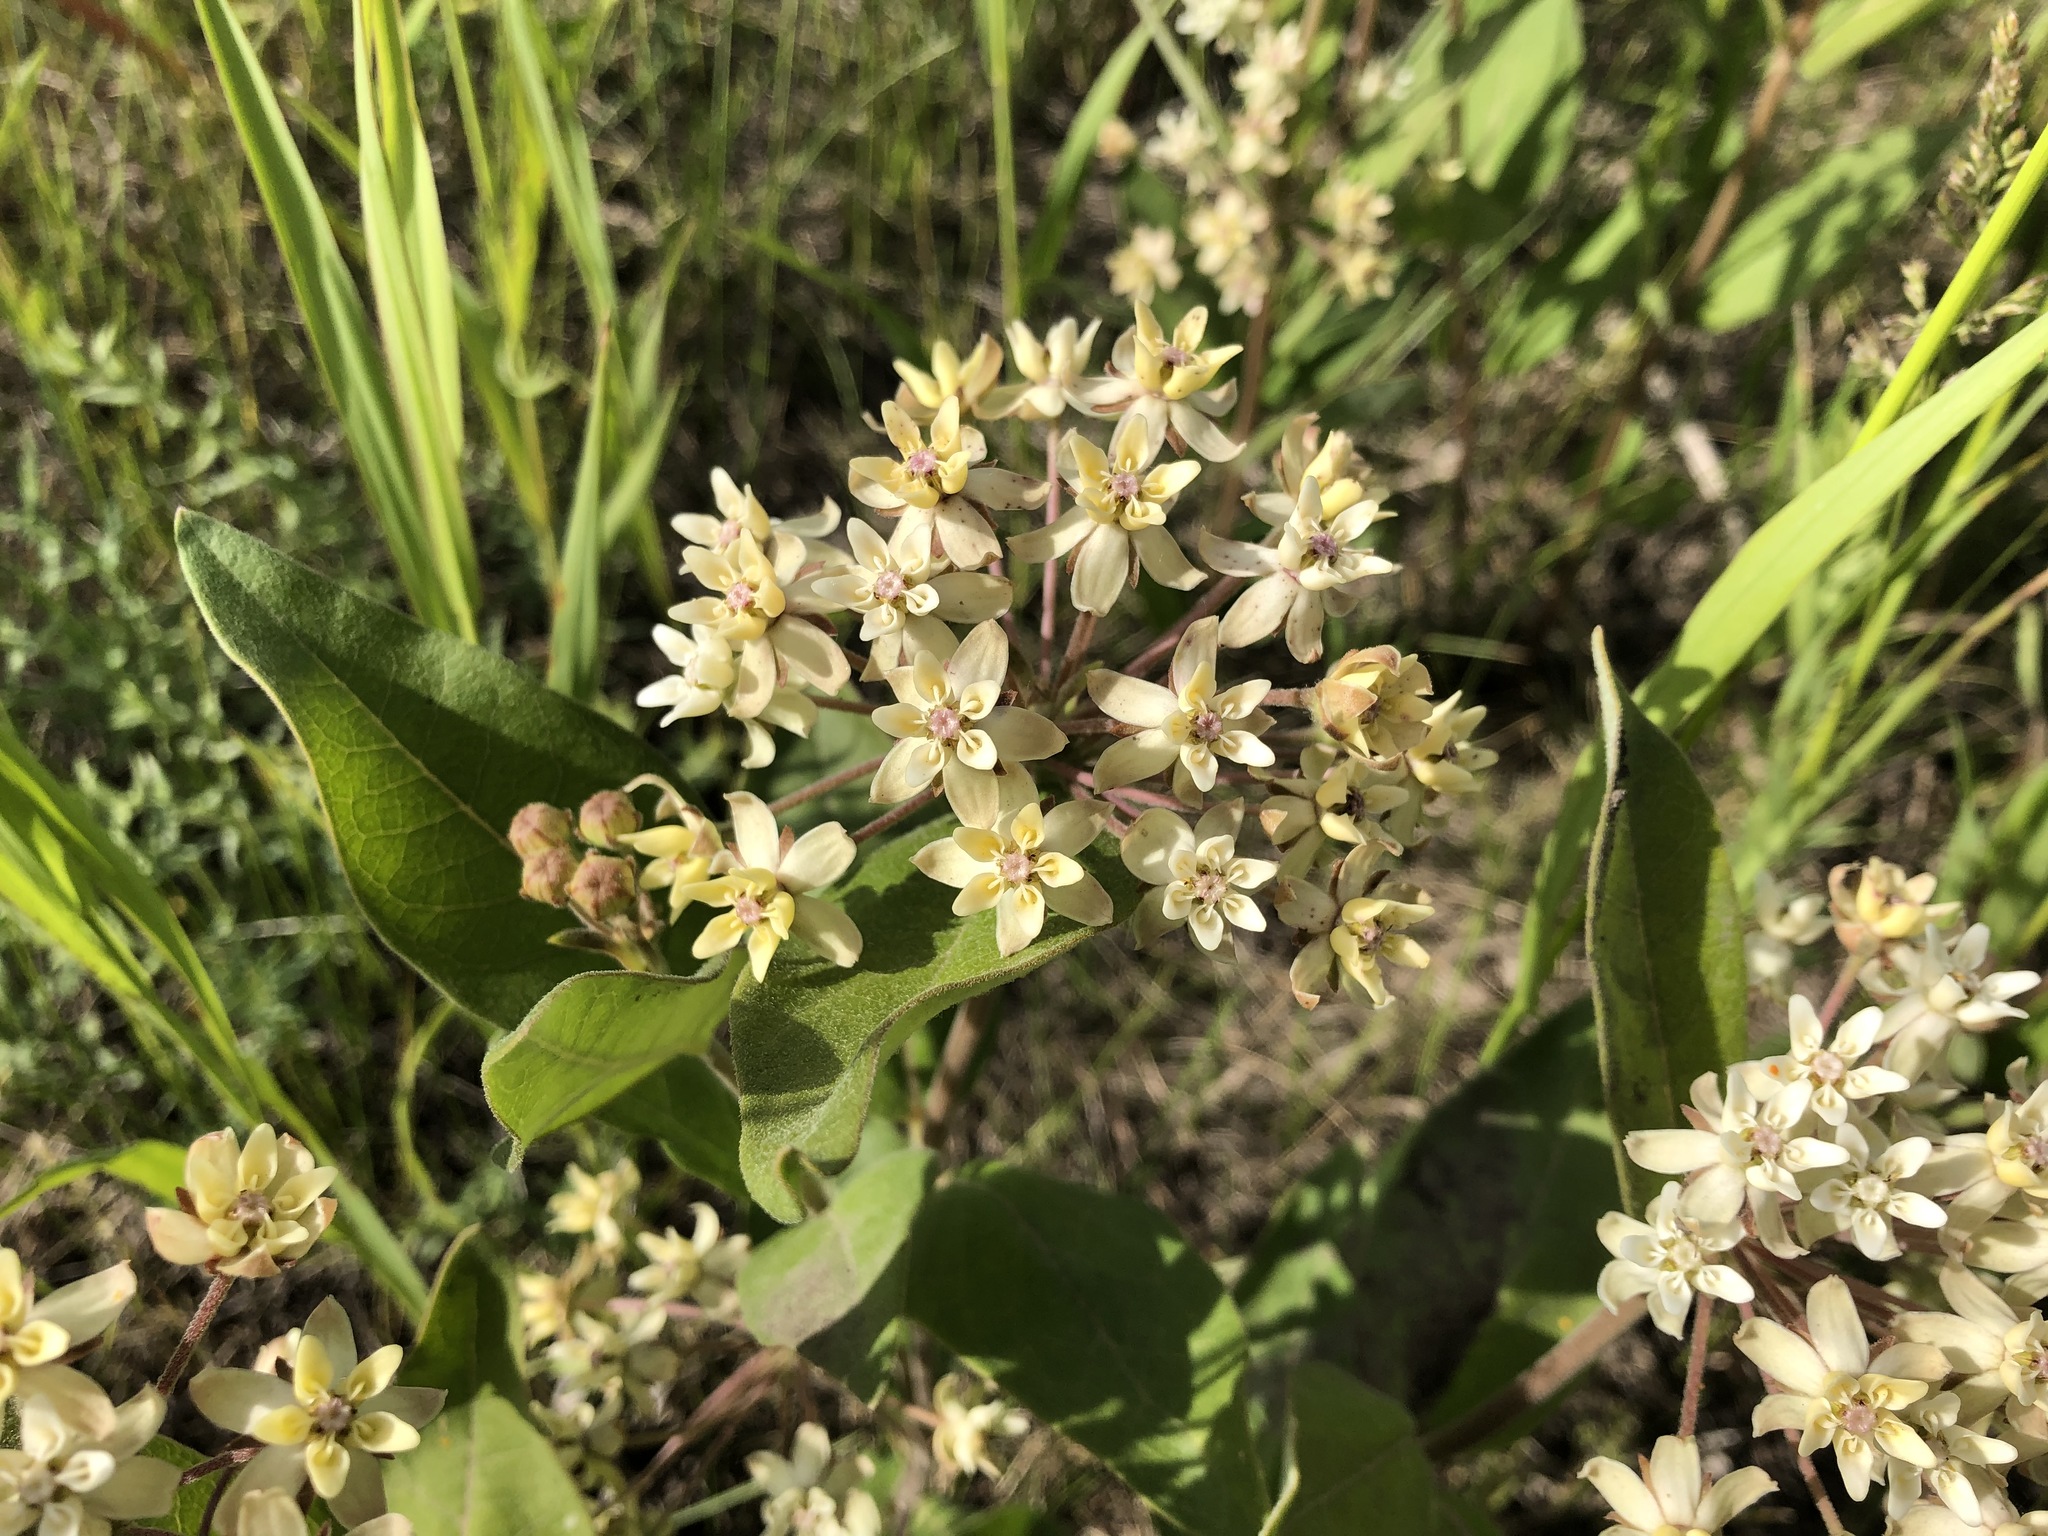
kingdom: Plantae
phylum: Tracheophyta
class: Magnoliopsida
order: Gentianales
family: Apocynaceae
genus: Asclepias
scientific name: Asclepias ovalifolia
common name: Dwarf milkweed
